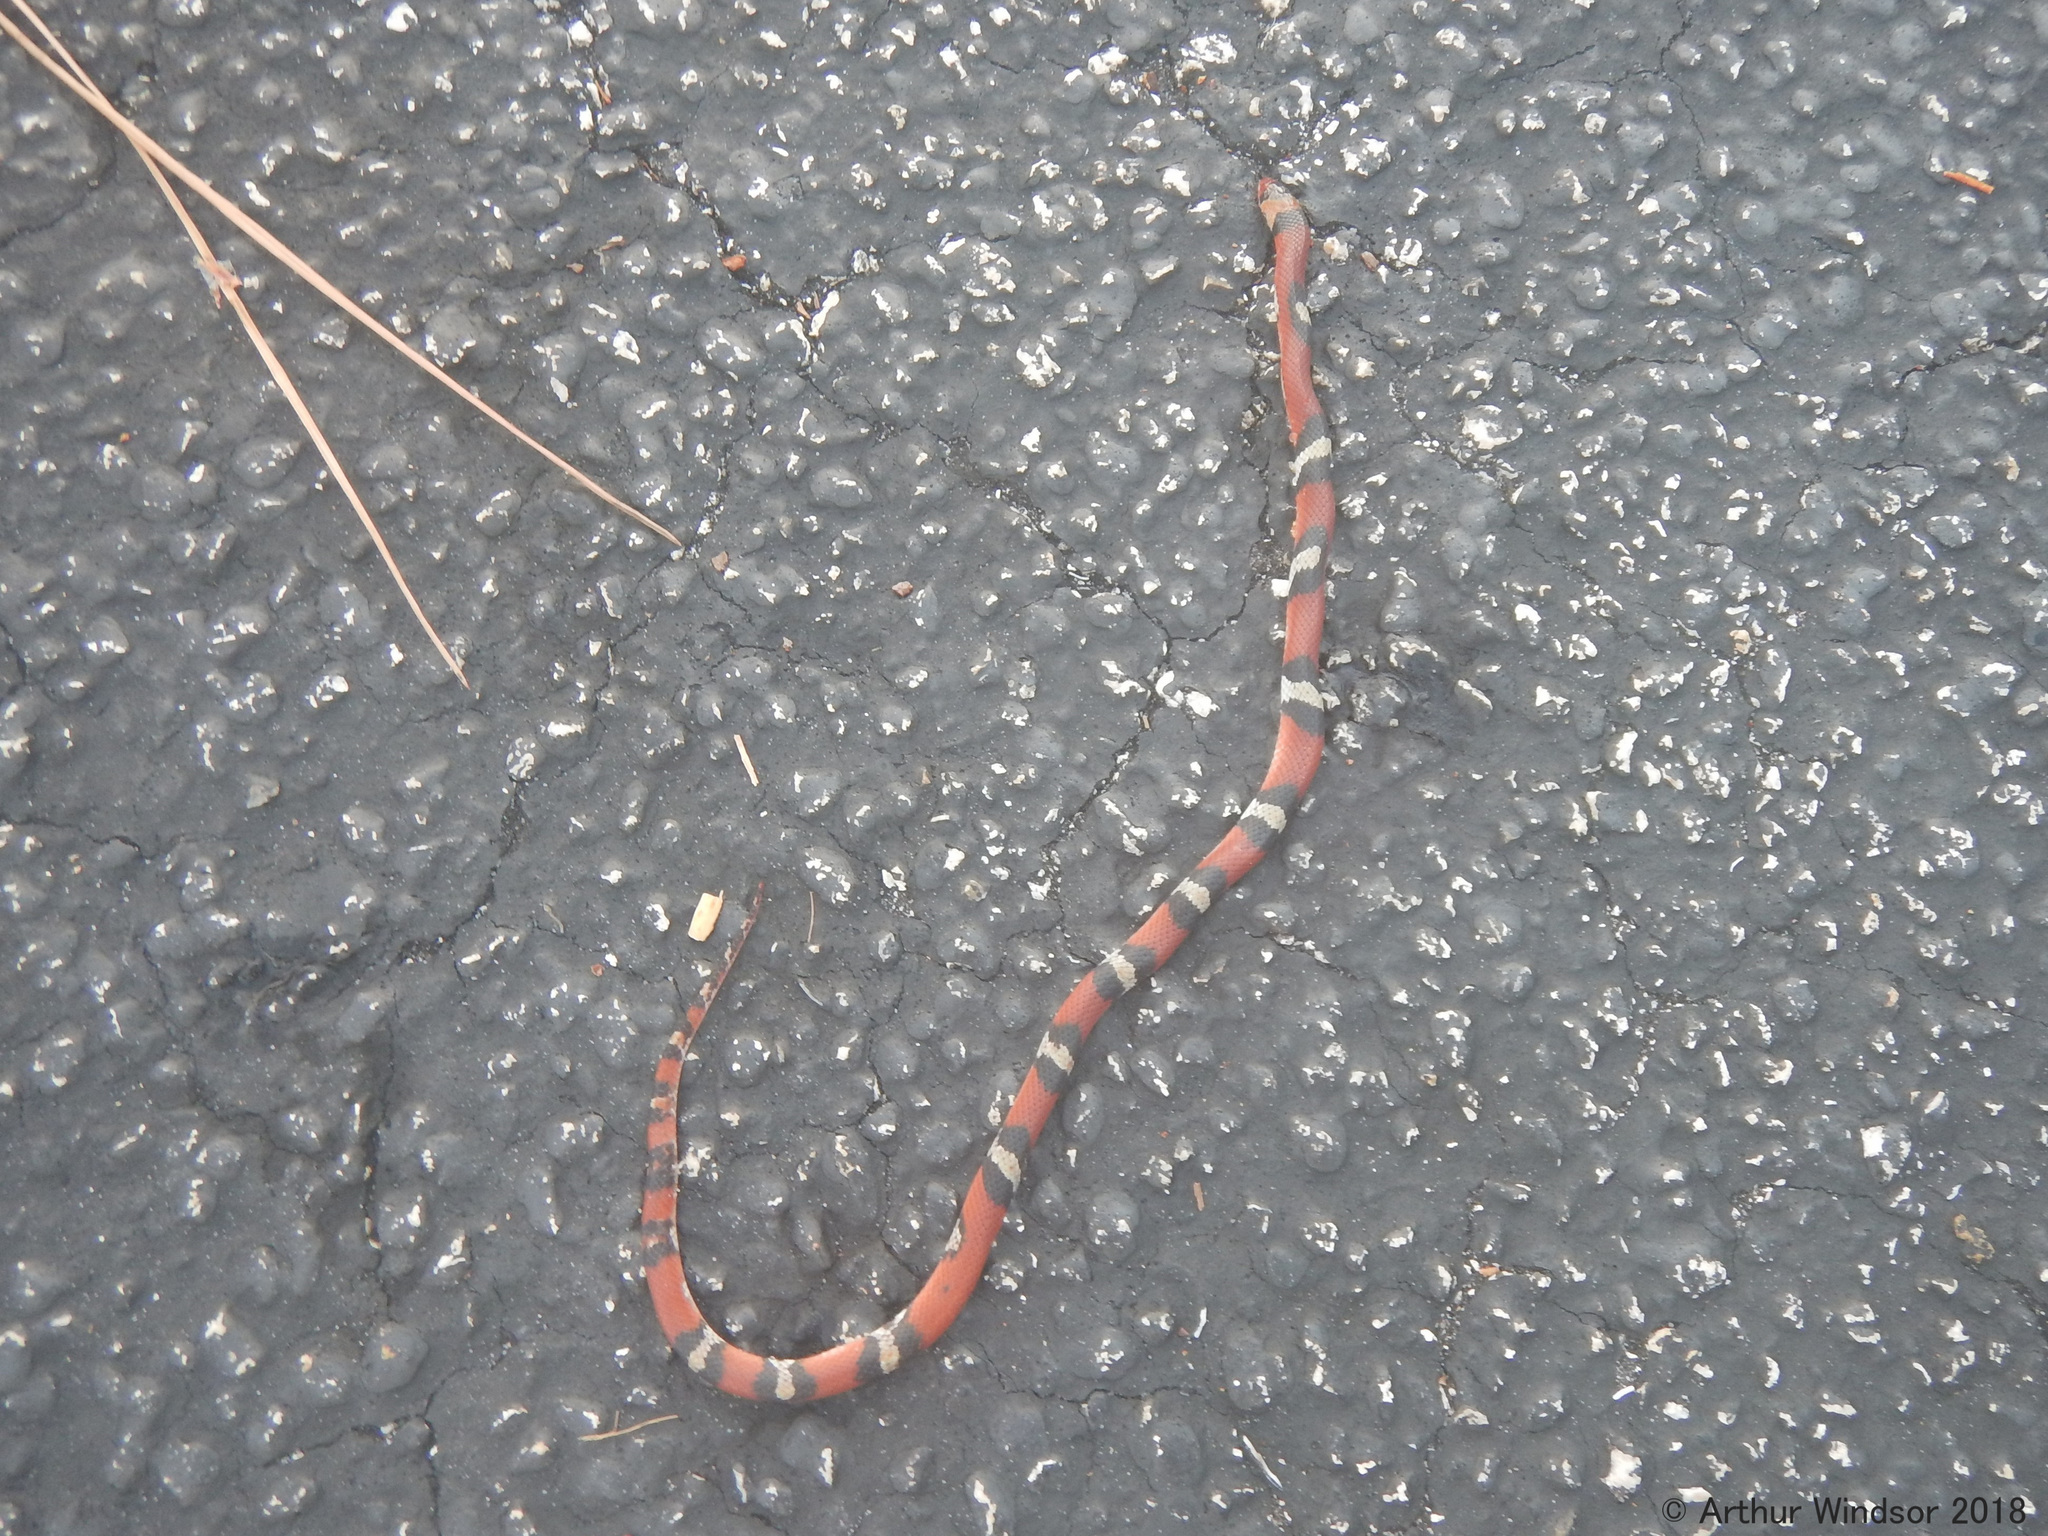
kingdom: Animalia
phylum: Chordata
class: Squamata
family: Colubridae
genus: Cemophora
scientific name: Cemophora coccinea
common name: Scarlet snake
